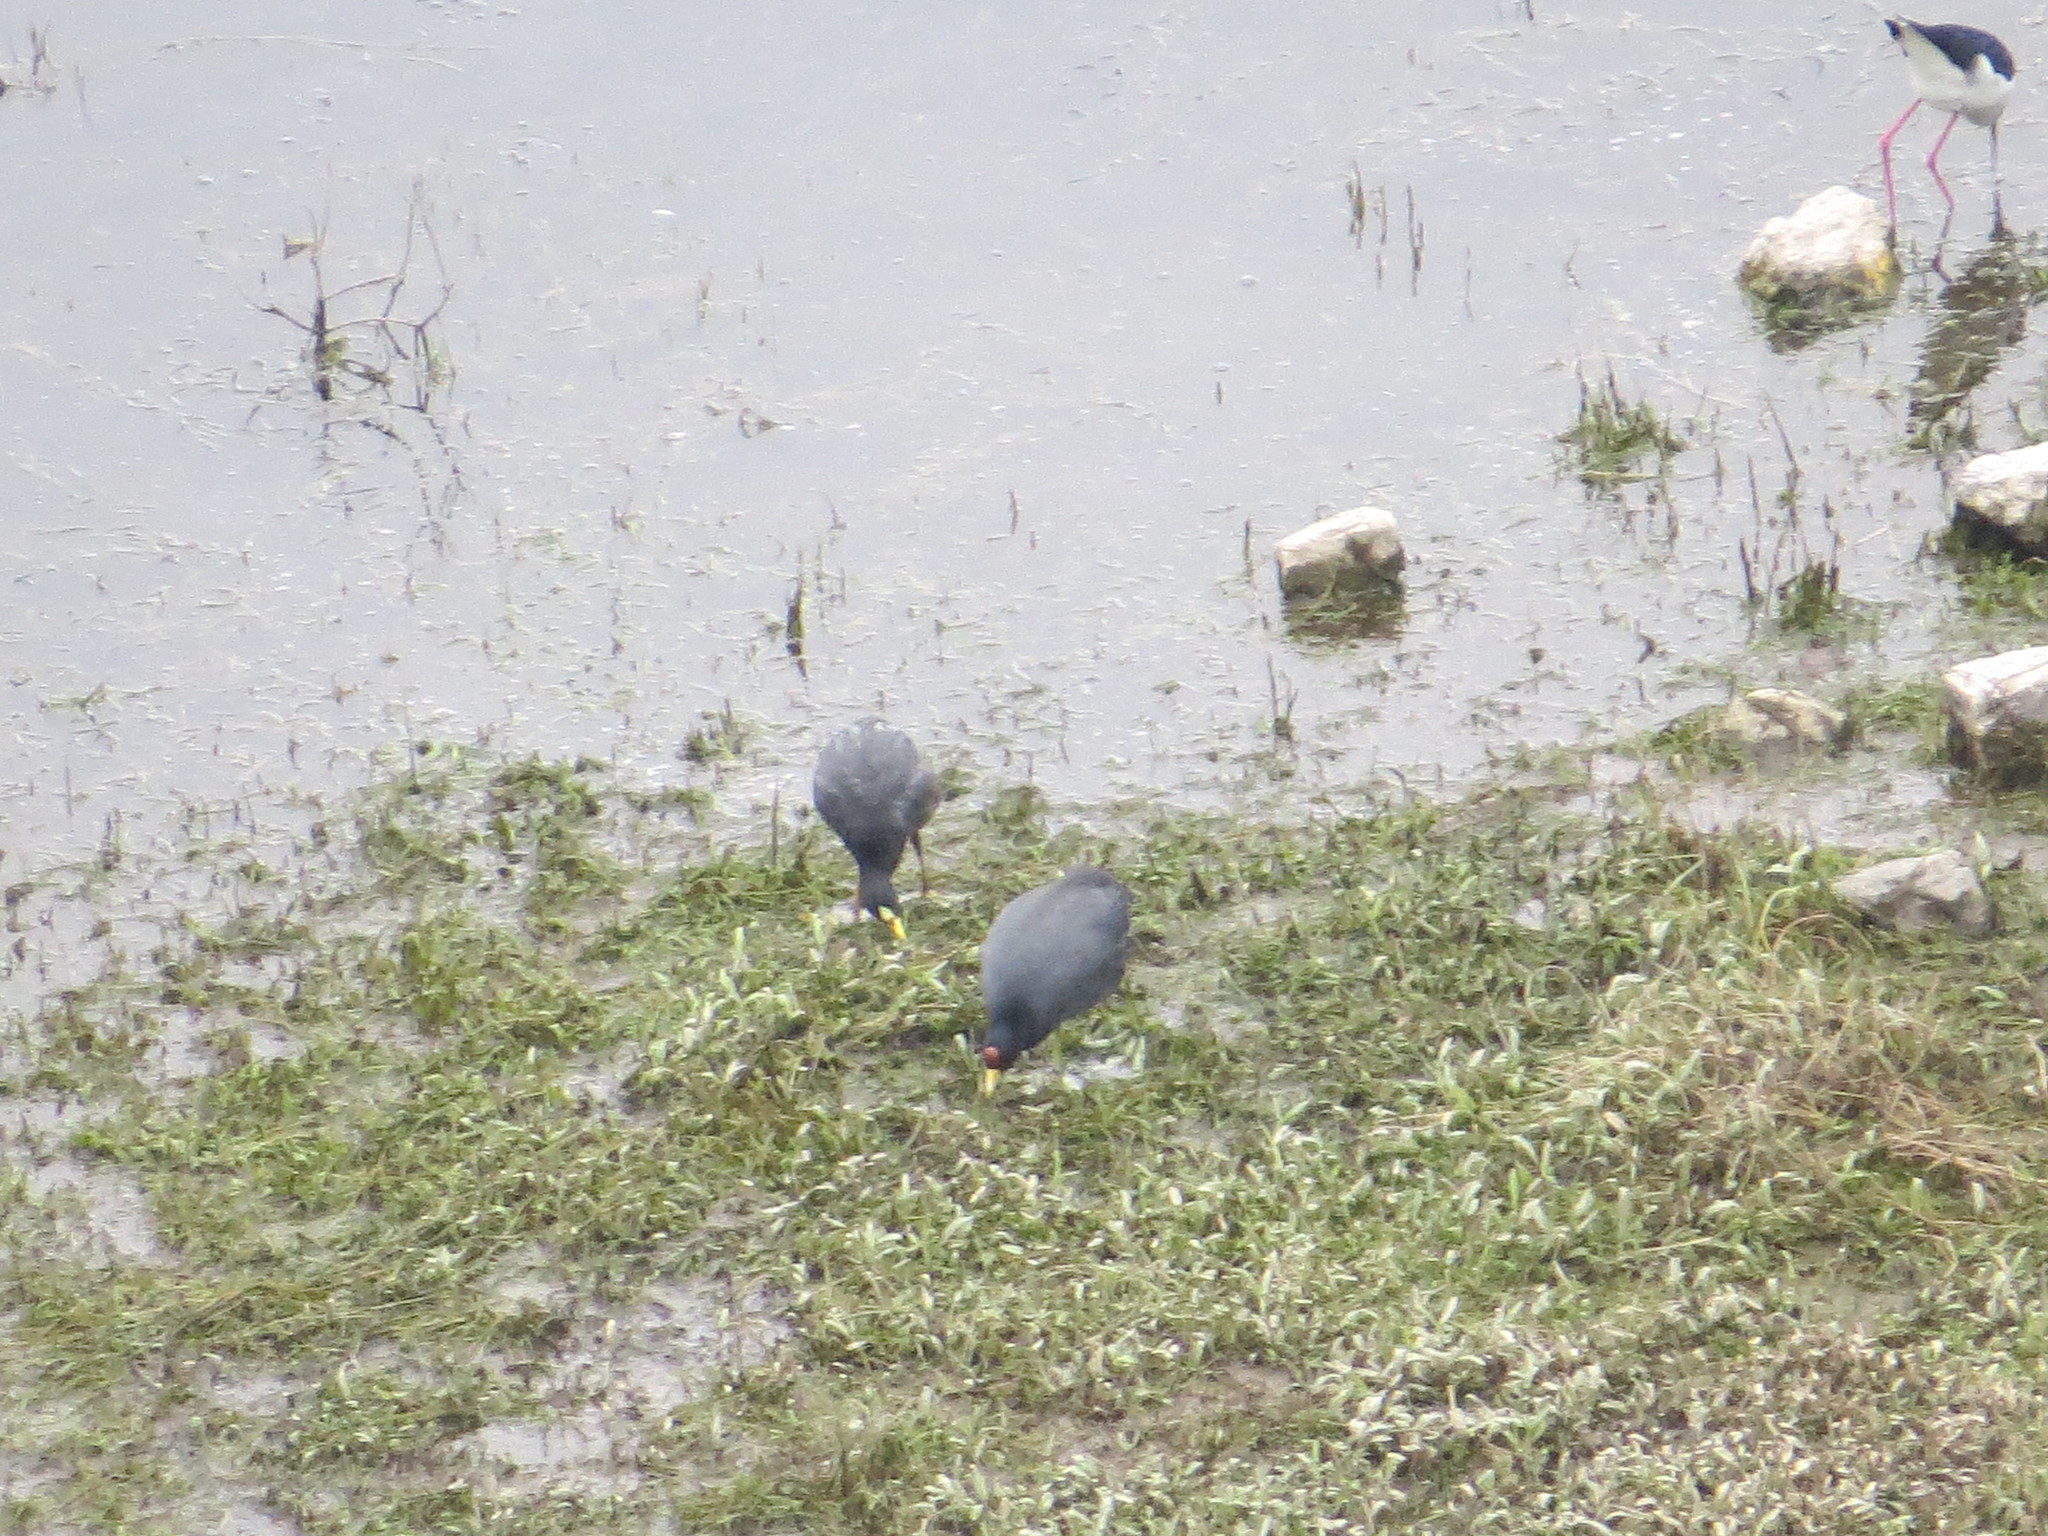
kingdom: Animalia
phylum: Chordata
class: Aves
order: Gruiformes
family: Rallidae
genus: Fulica
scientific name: Fulica armillata
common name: Red-gartered coot
